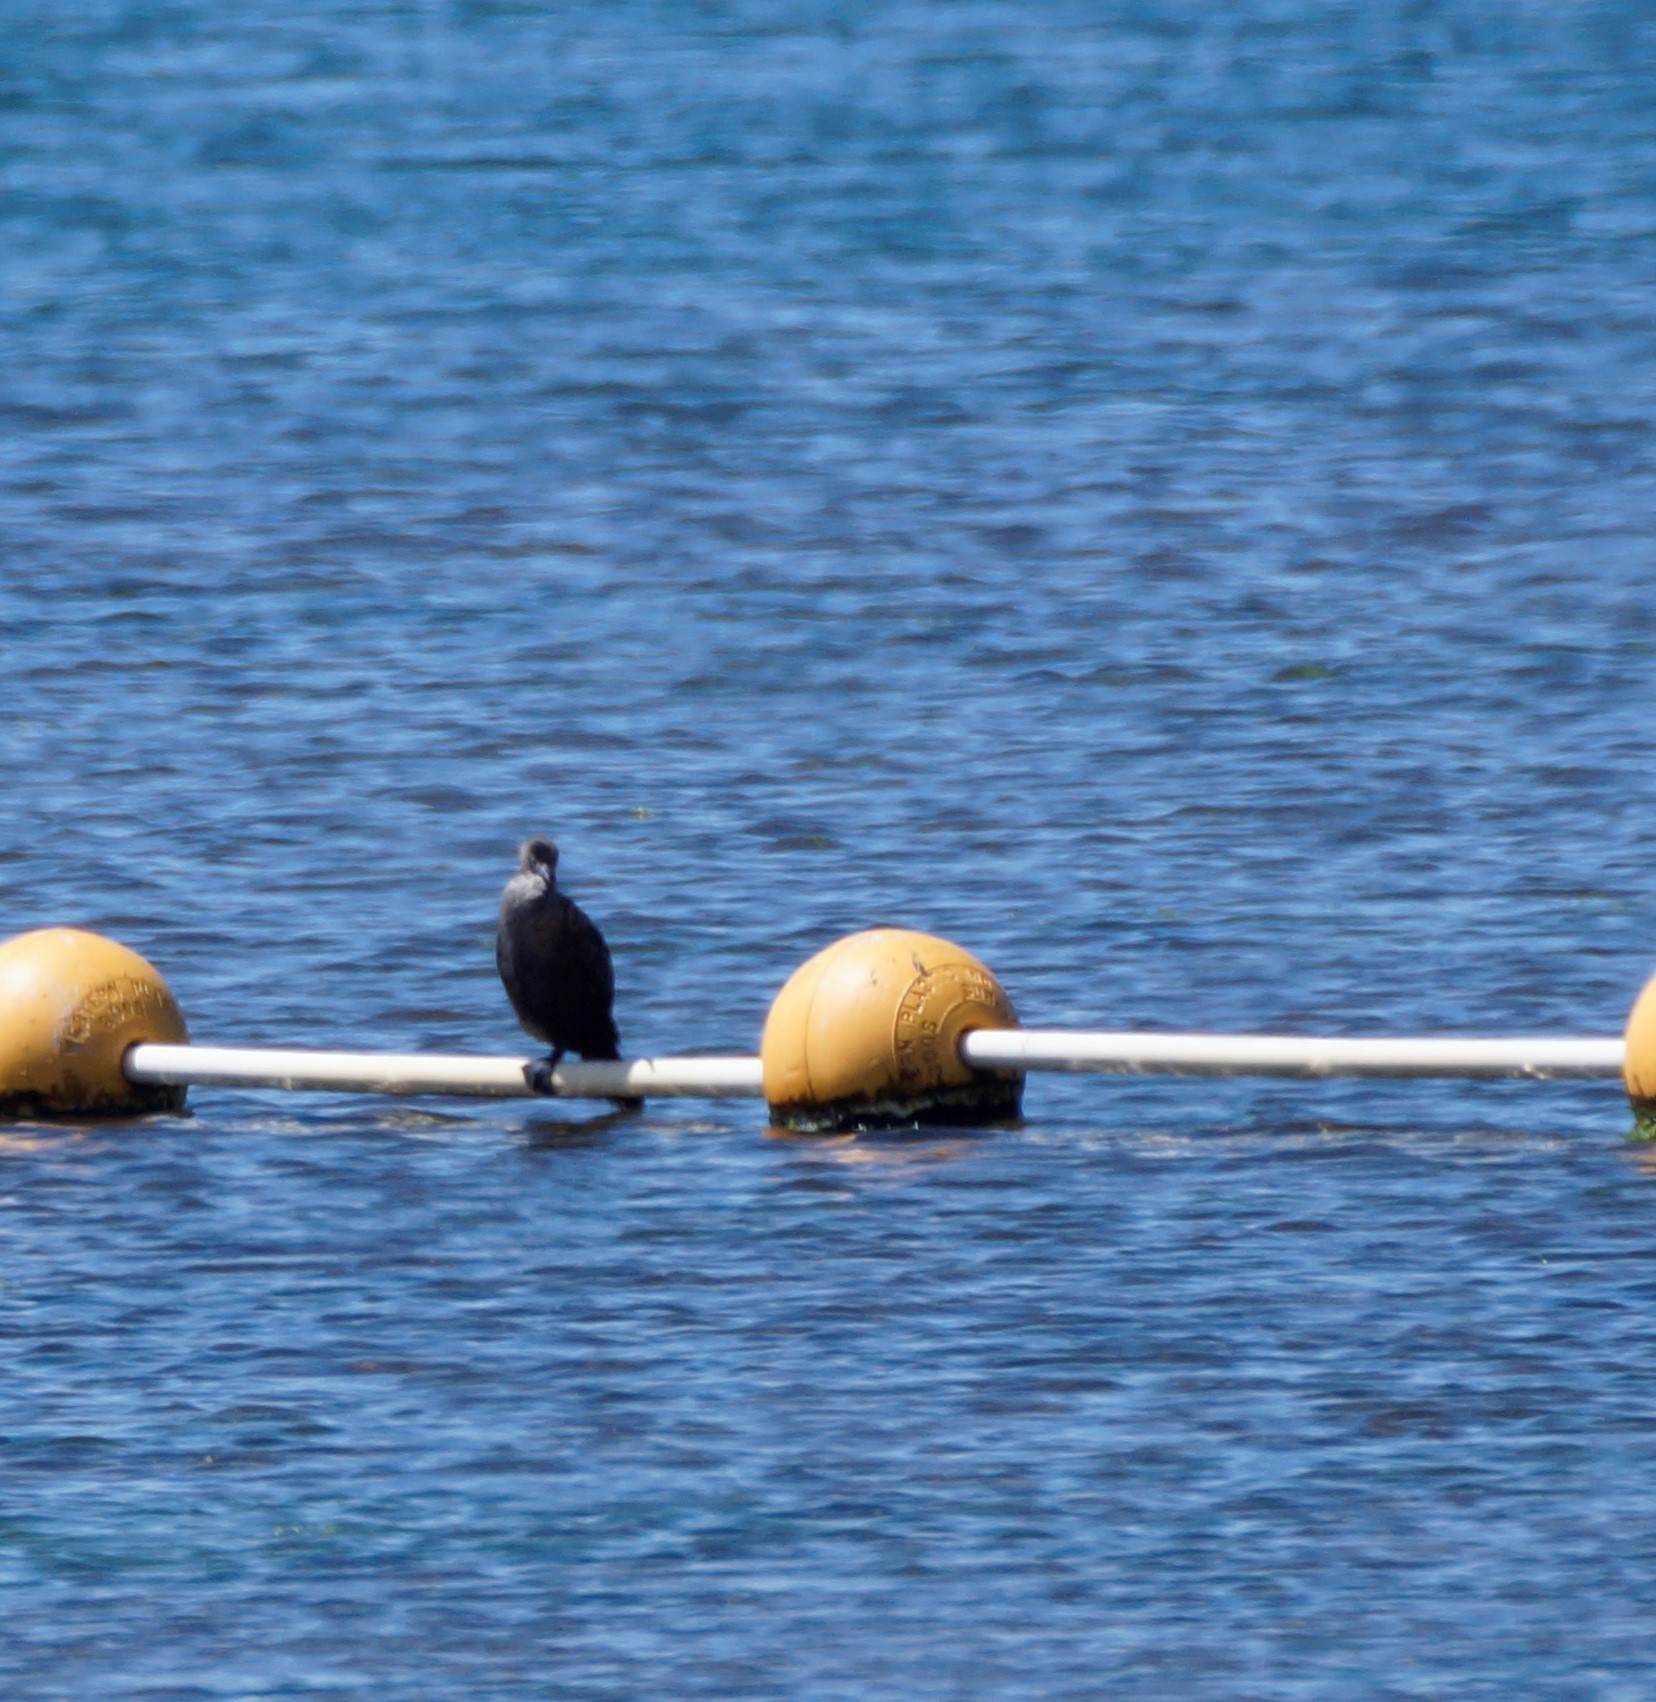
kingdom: Animalia
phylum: Chordata
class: Aves
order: Suliformes
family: Phalacrocoracidae
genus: Phalacrocorax
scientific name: Phalacrocorax sulcirostris
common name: Little black cormorant
